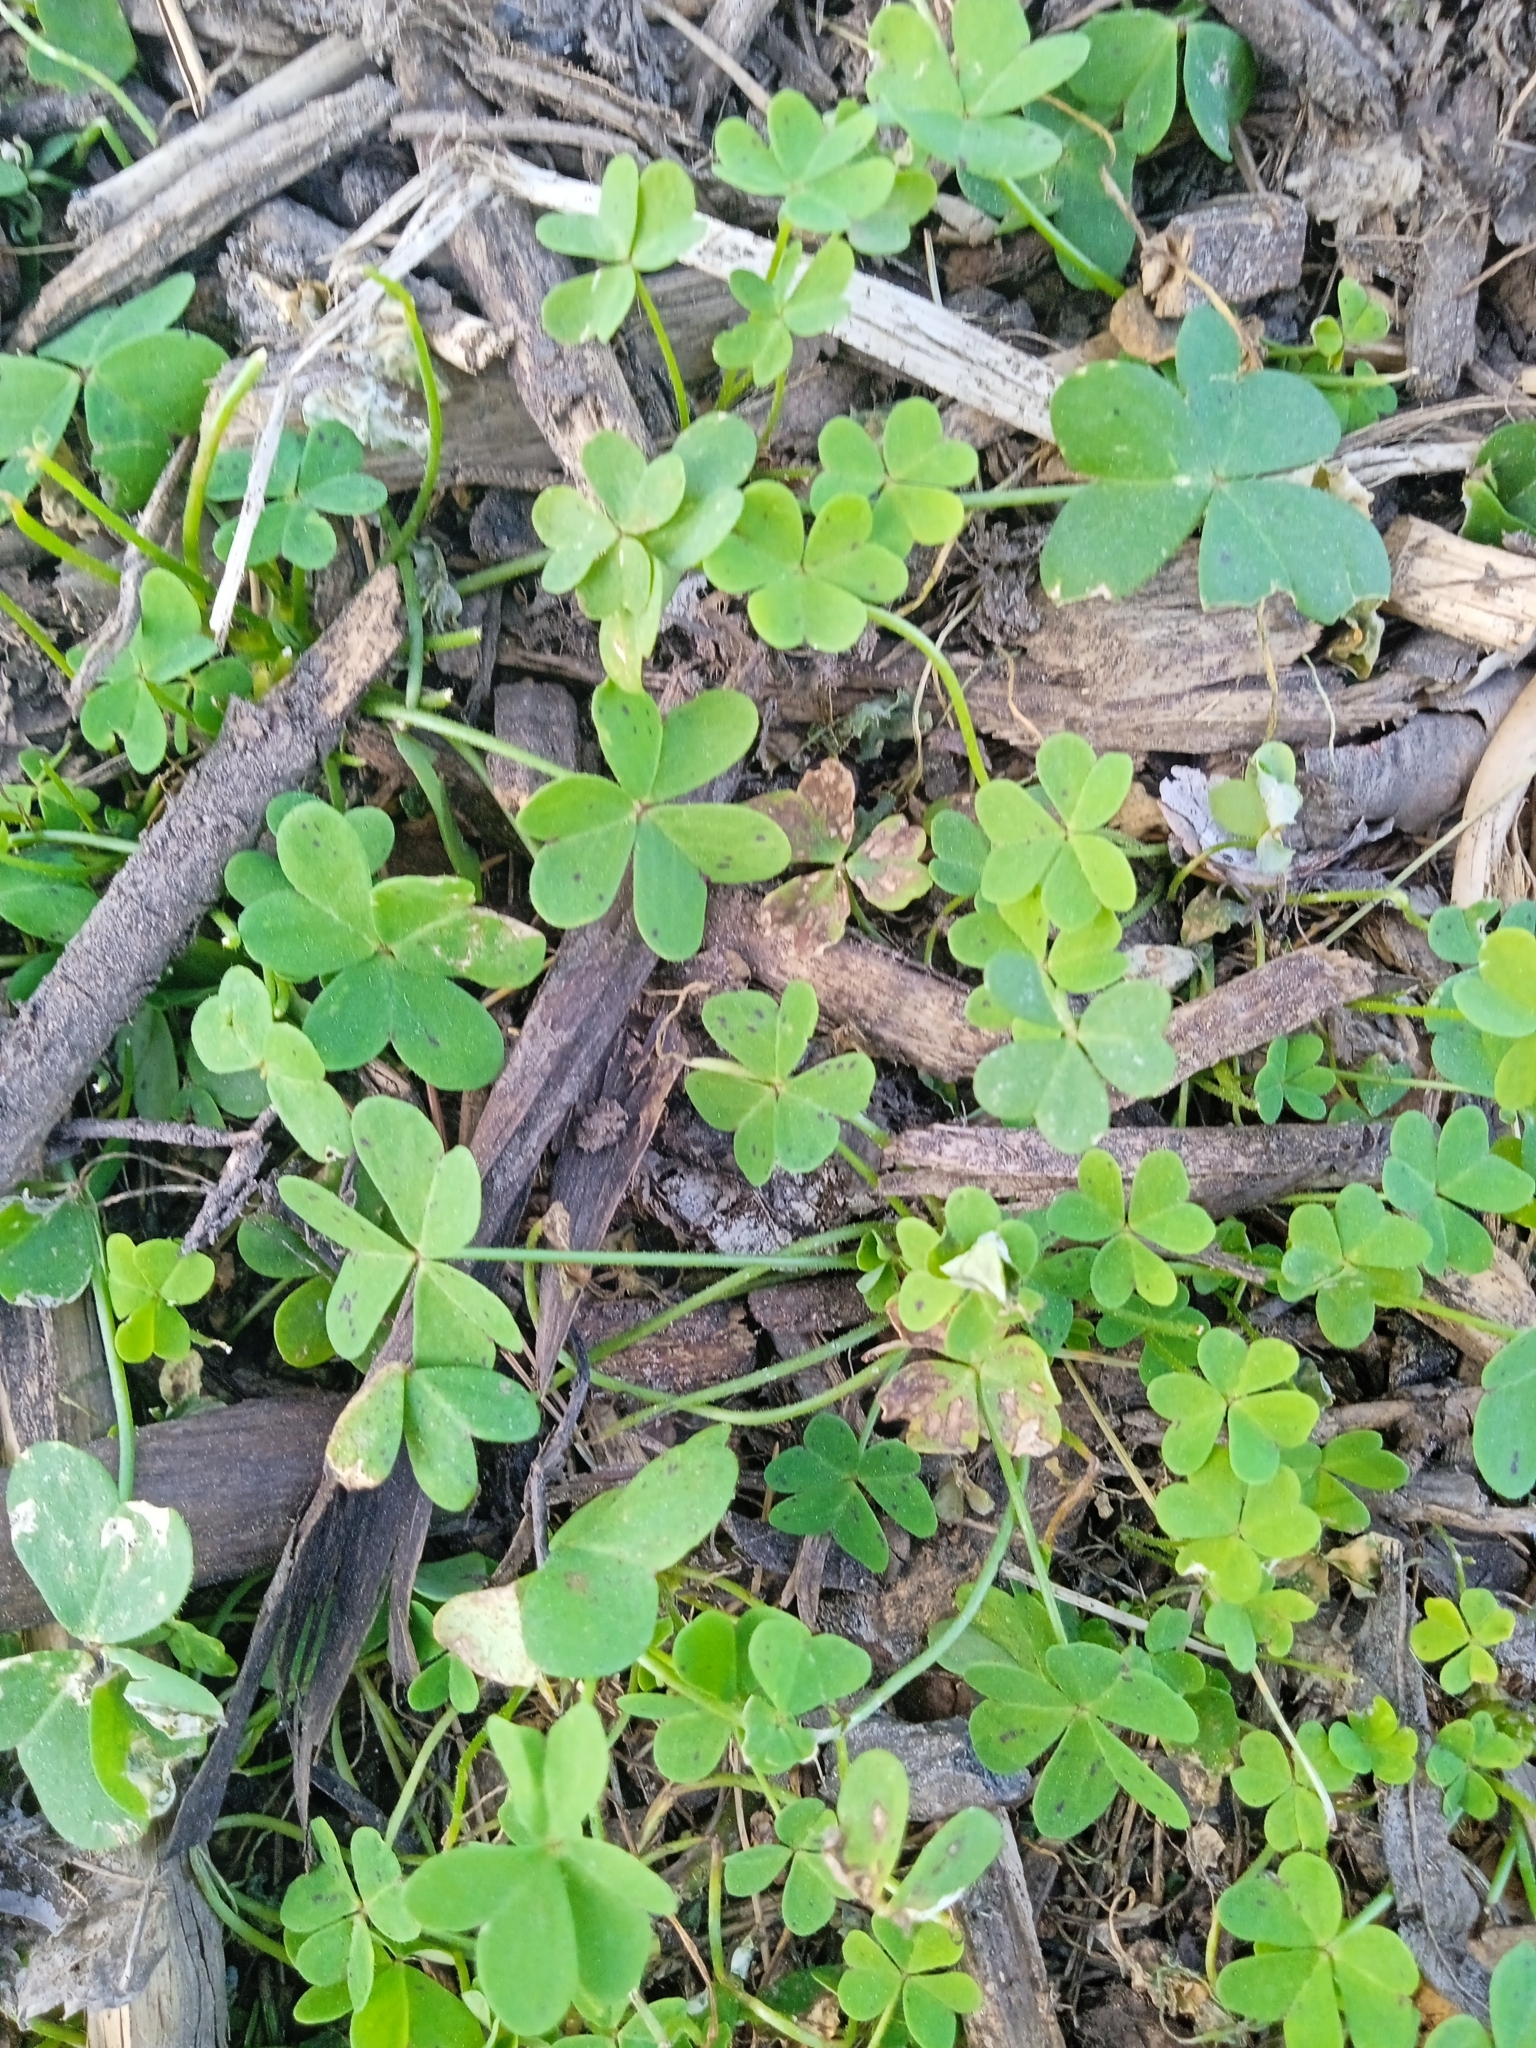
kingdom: Plantae
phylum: Tracheophyta
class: Magnoliopsida
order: Oxalidales
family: Oxalidaceae
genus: Oxalis
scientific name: Oxalis pes-caprae
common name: Bermuda-buttercup
